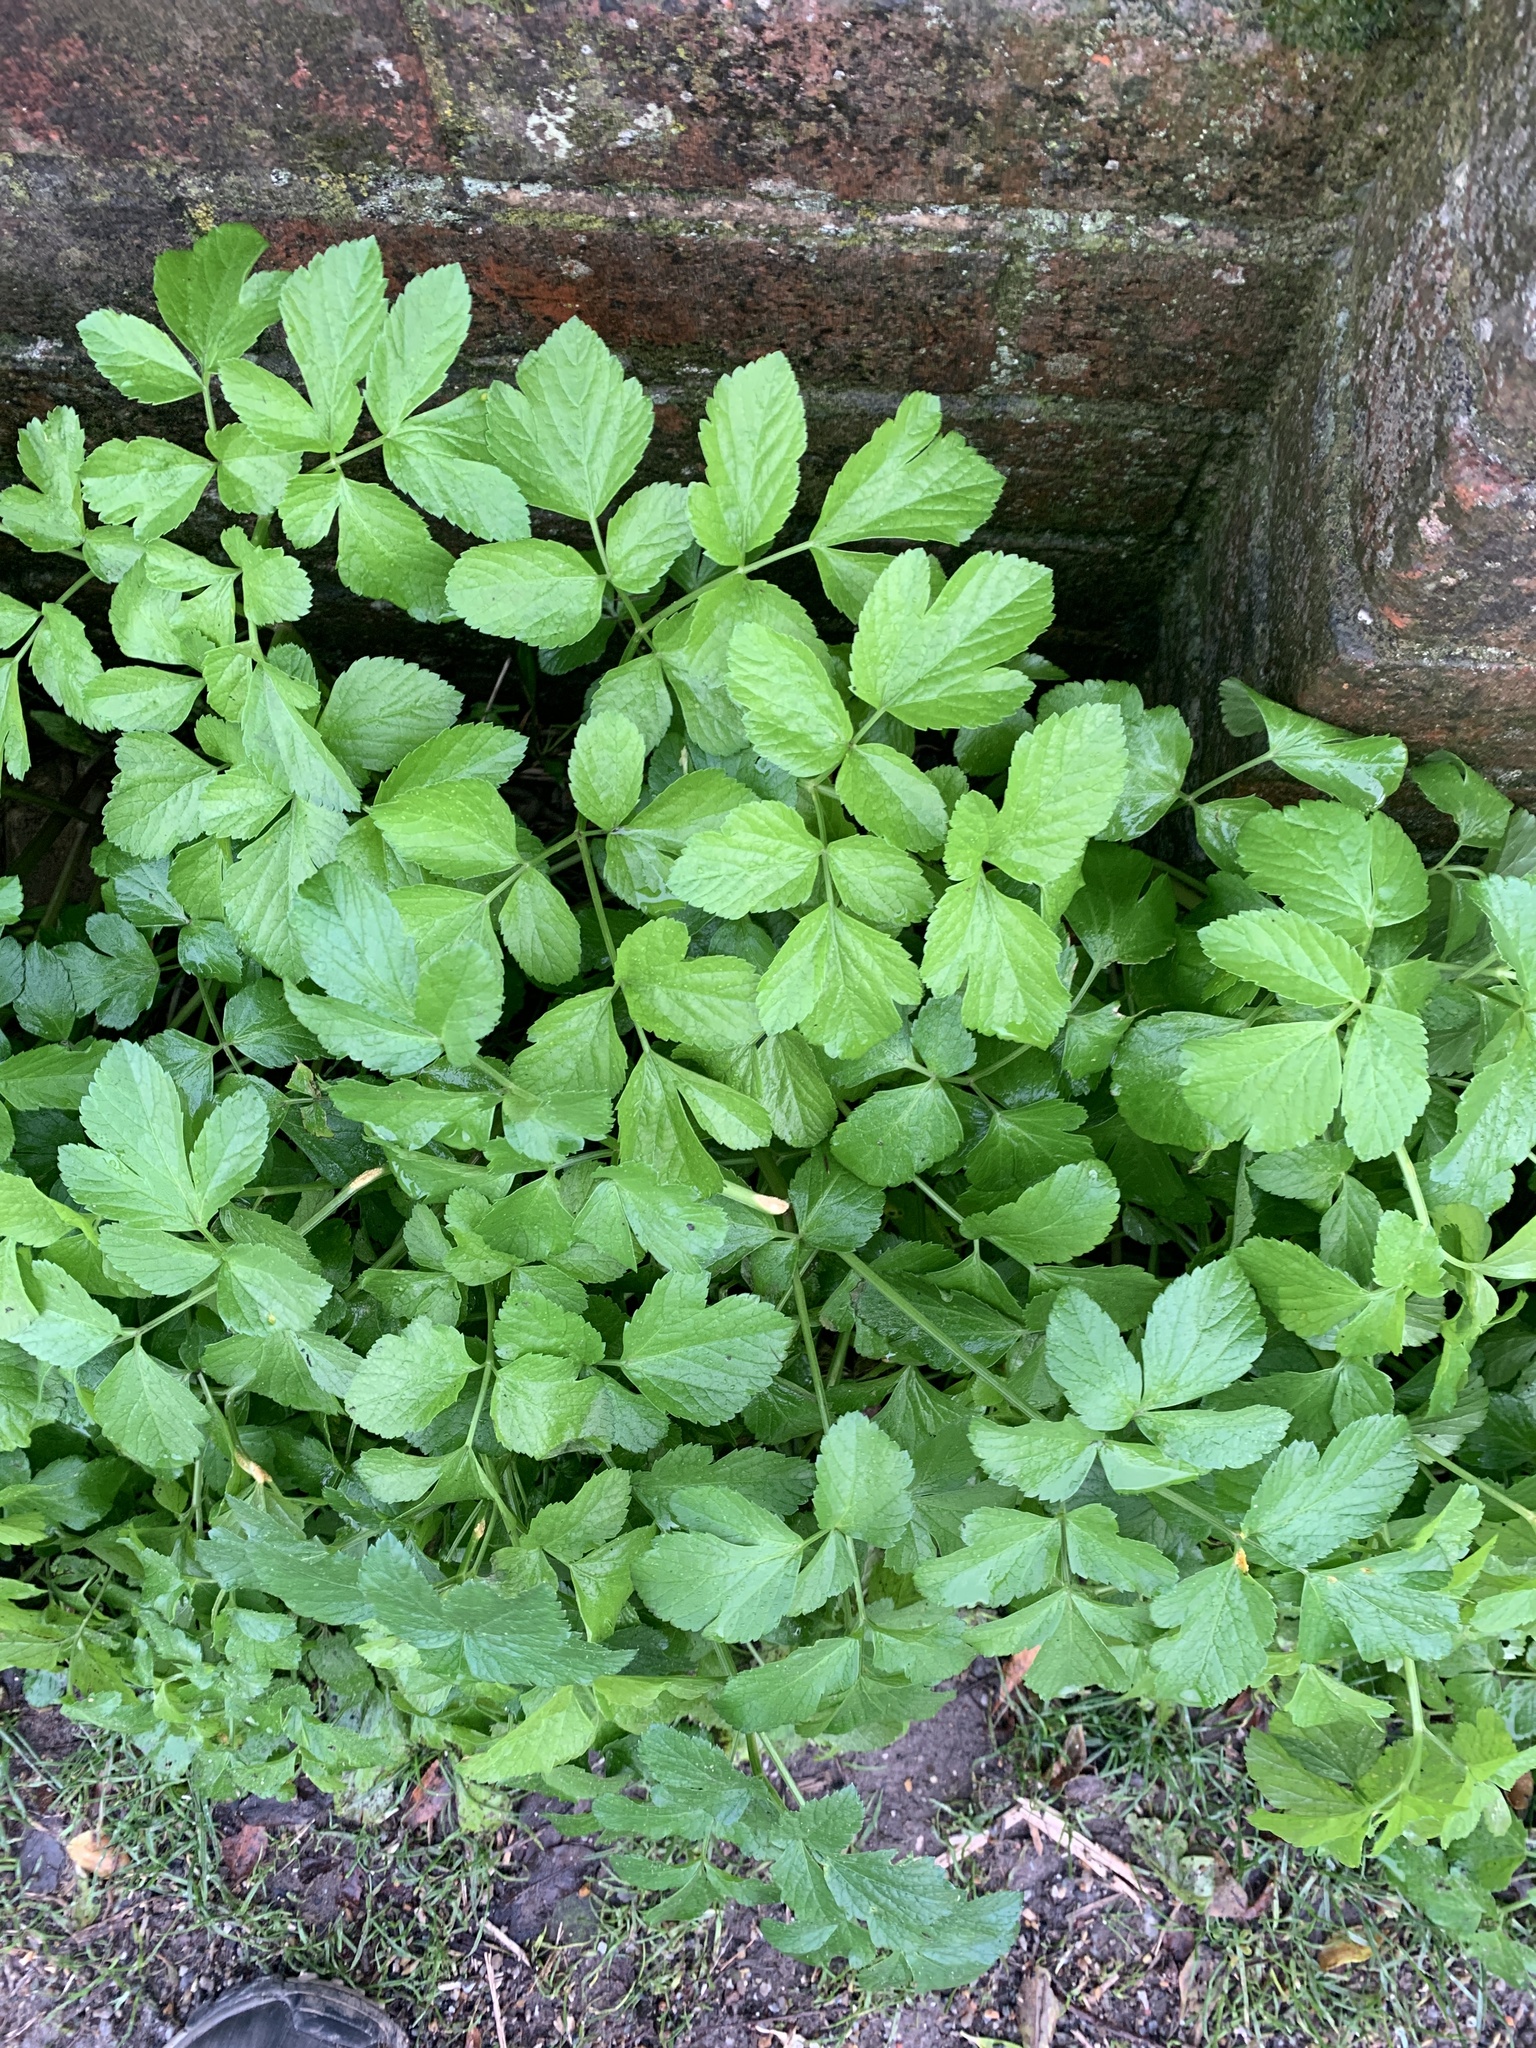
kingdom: Plantae
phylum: Tracheophyta
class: Magnoliopsida
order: Apiales
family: Apiaceae
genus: Smyrnium
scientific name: Smyrnium olusatrum
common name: Alexanders
